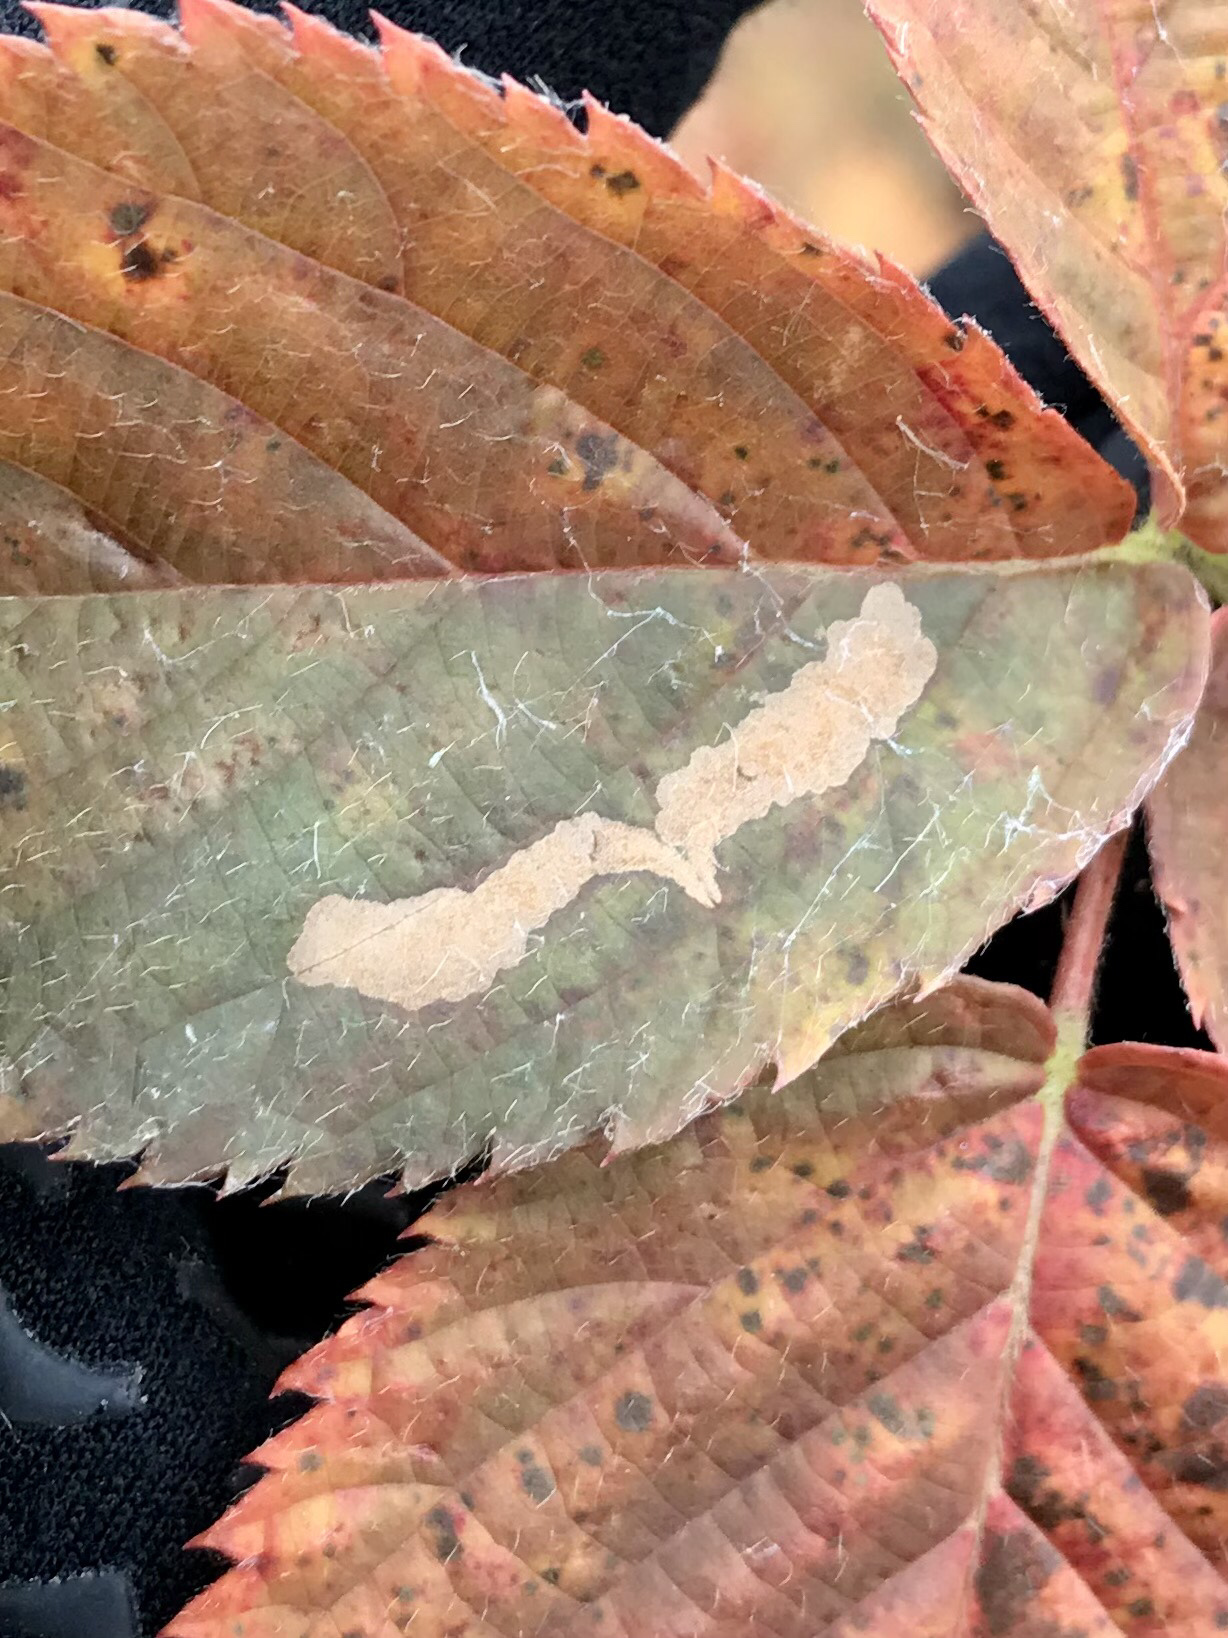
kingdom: Animalia
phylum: Arthropoda
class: Insecta
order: Lepidoptera
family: Tischeriidae
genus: Coptotriche
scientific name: Coptotriche aenea
